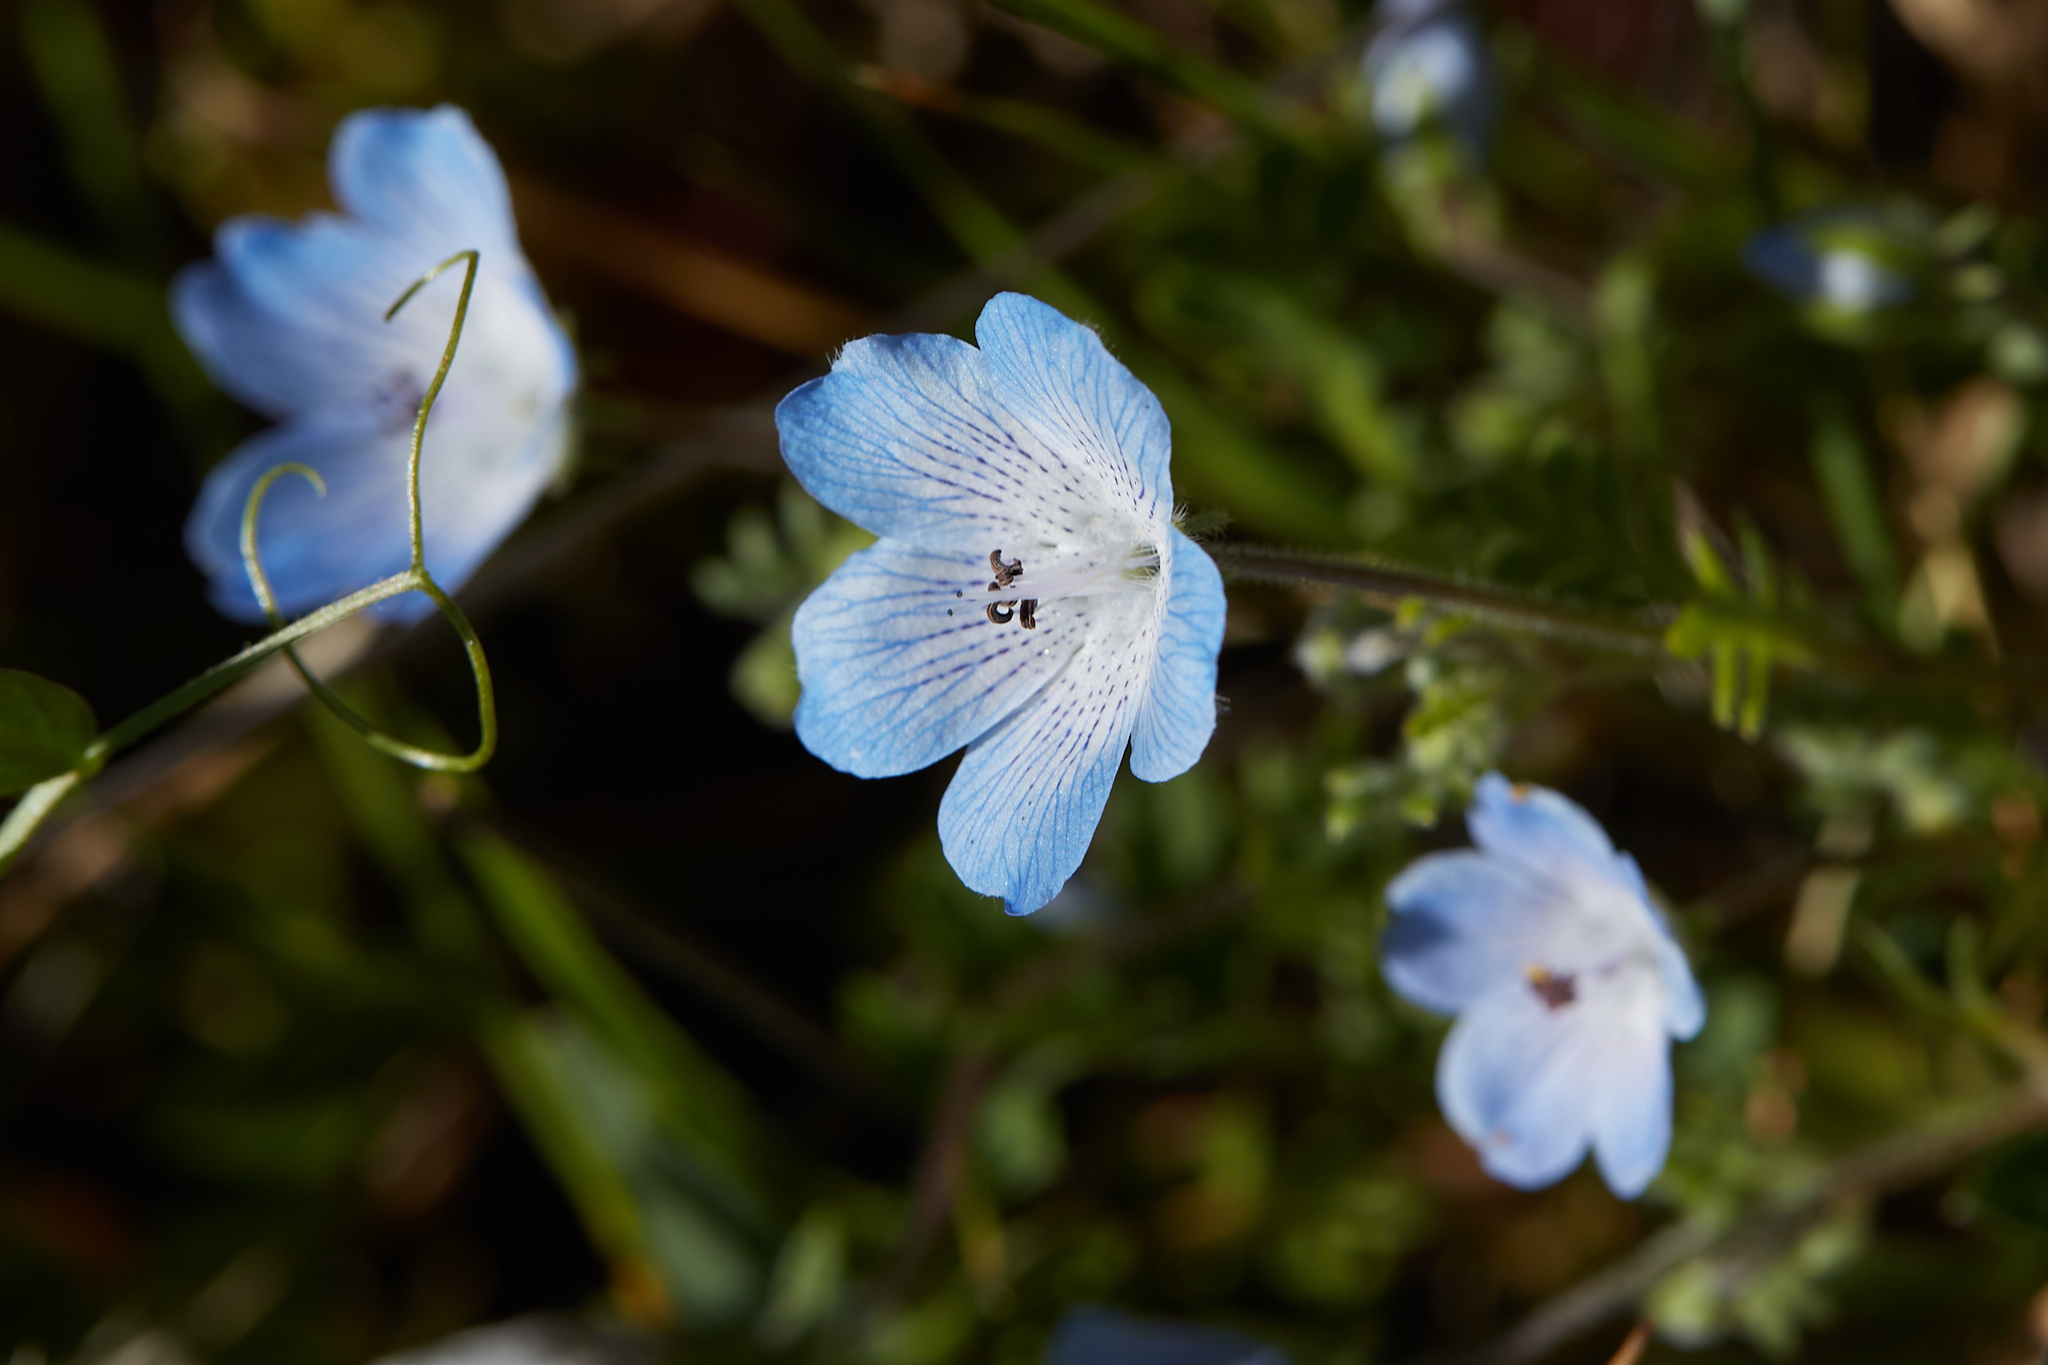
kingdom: Plantae
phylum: Tracheophyta
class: Magnoliopsida
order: Boraginales
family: Hydrophyllaceae
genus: Nemophila
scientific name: Nemophila menziesii
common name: Baby's-blue-eyes
